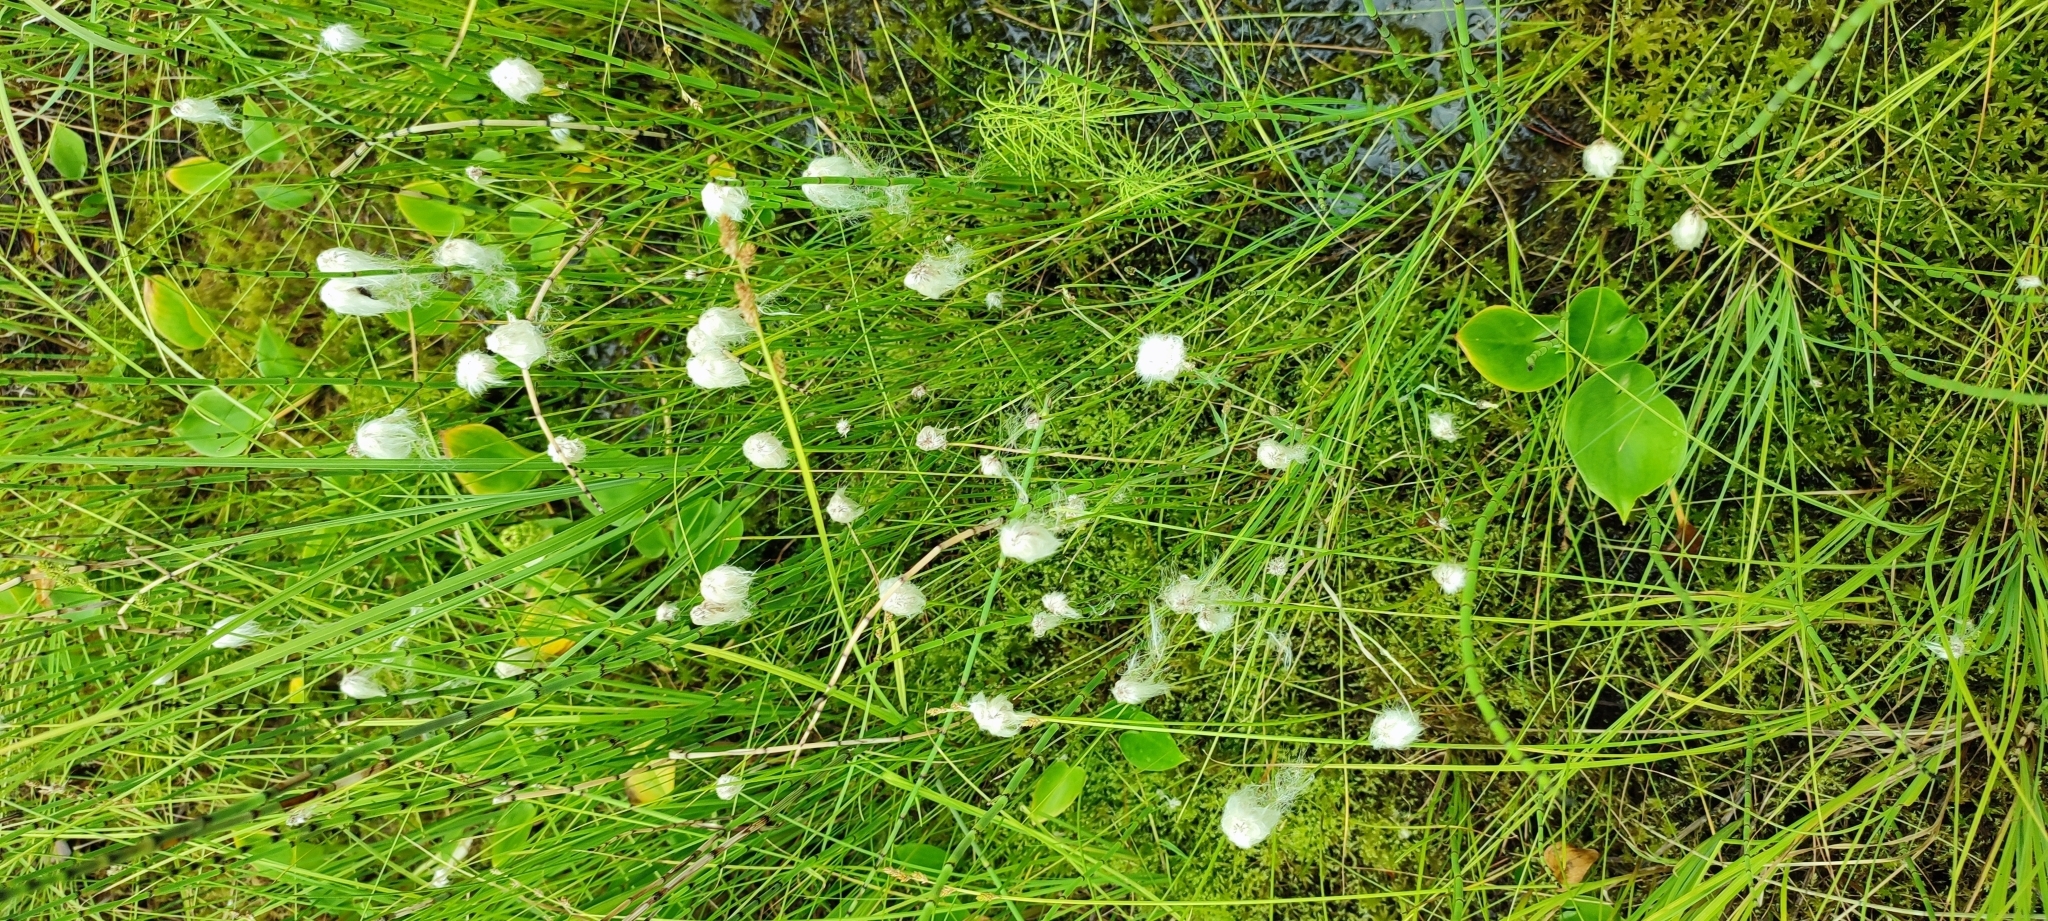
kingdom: Plantae
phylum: Tracheophyta
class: Liliopsida
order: Poales
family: Cyperaceae
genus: Eriophorum
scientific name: Eriophorum vaginatum
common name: Hare's-tail cottongrass
